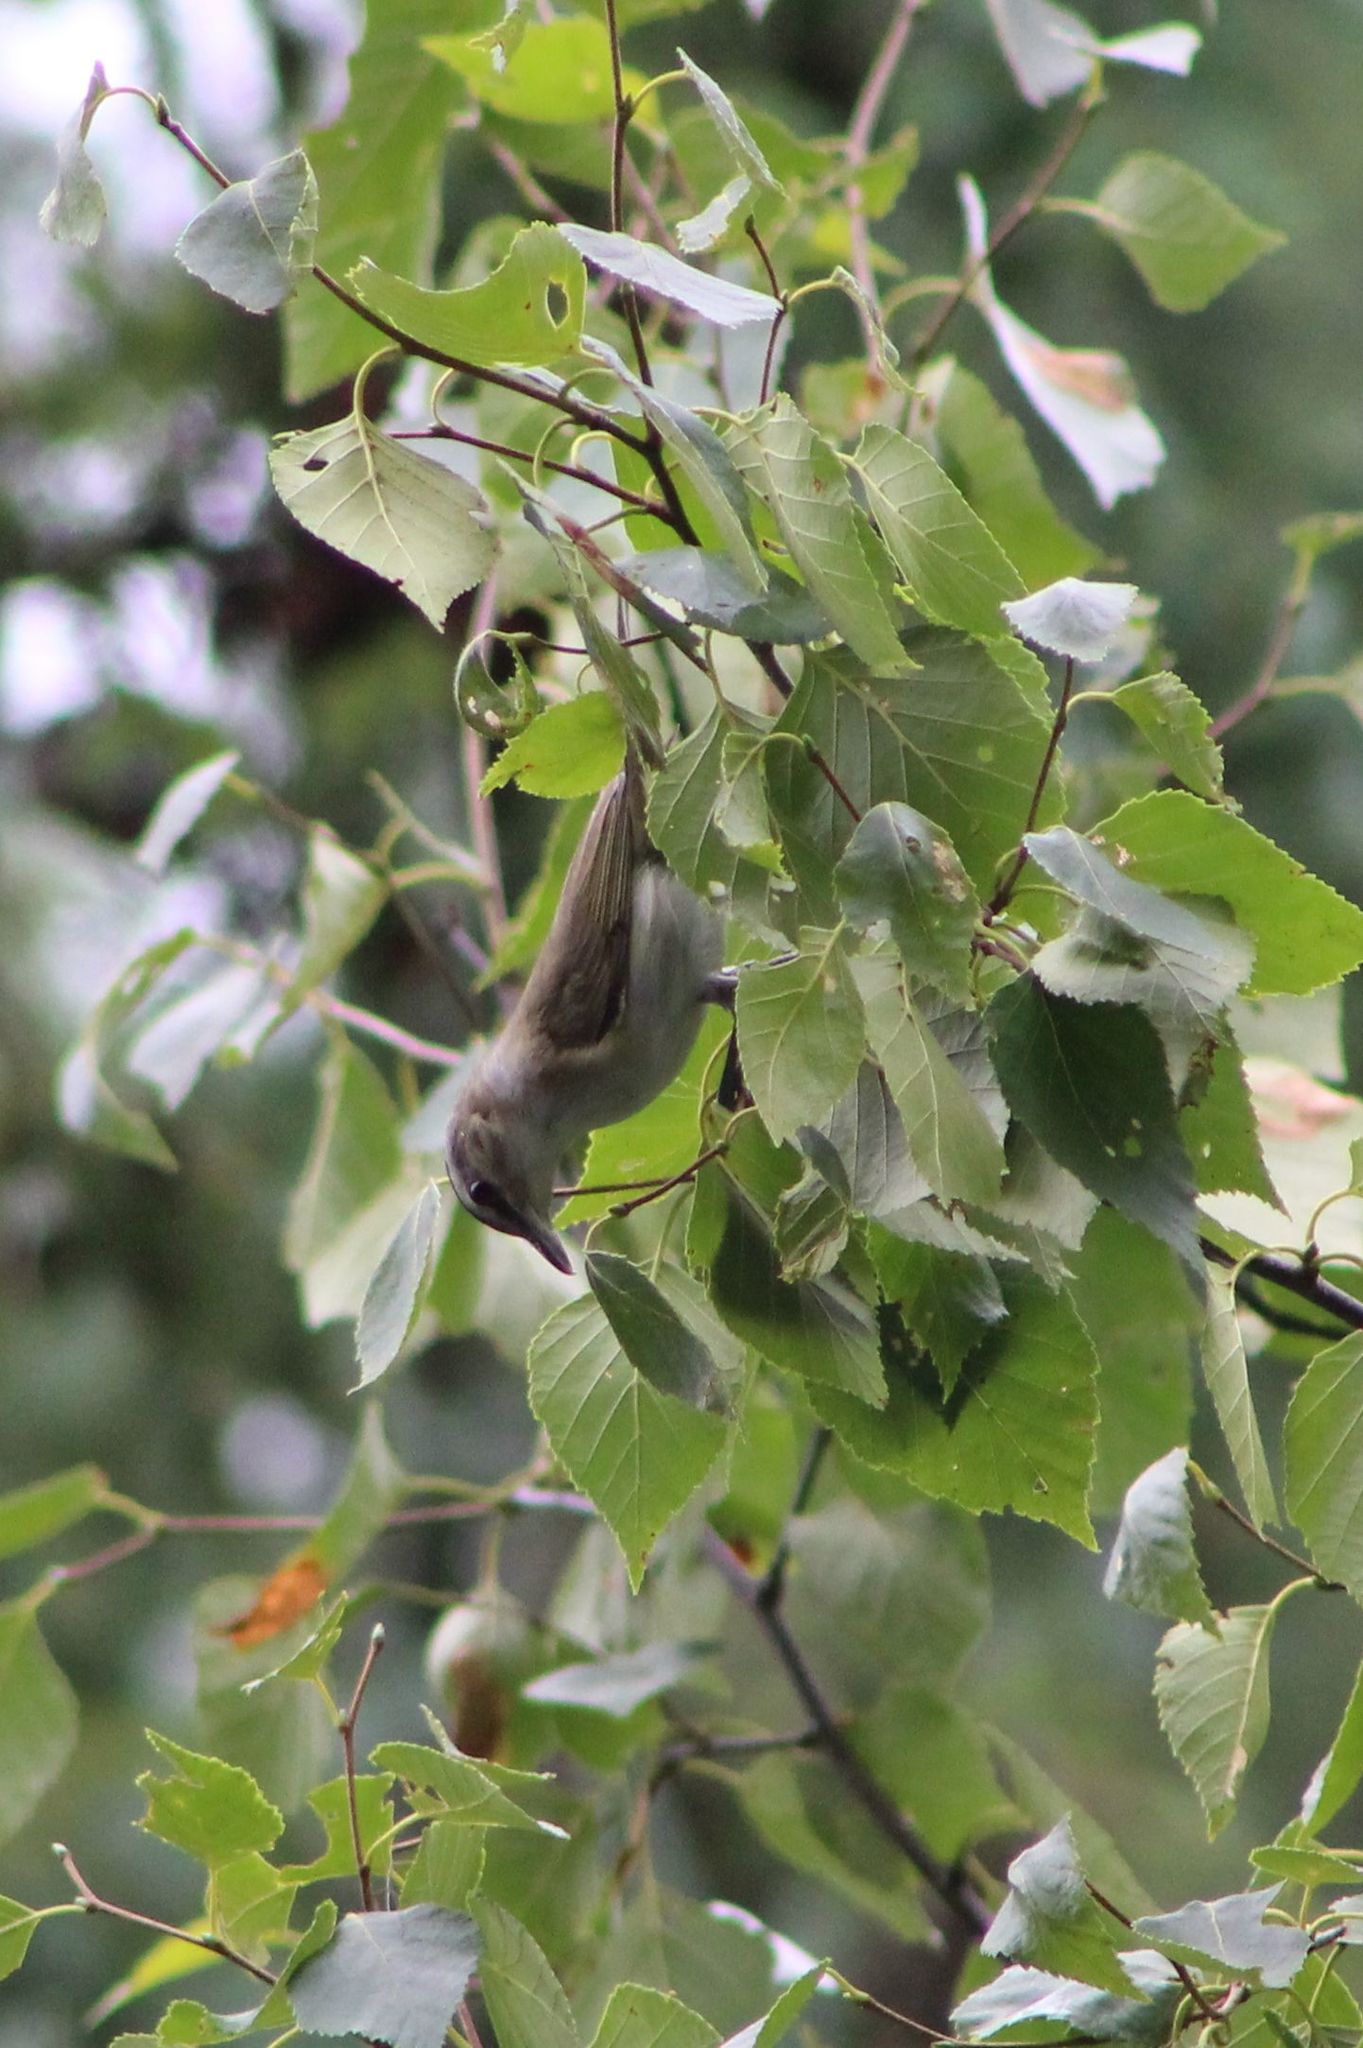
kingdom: Animalia
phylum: Chordata
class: Aves
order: Passeriformes
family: Vireonidae
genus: Vireo
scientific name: Vireo olivaceus
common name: Red-eyed vireo
